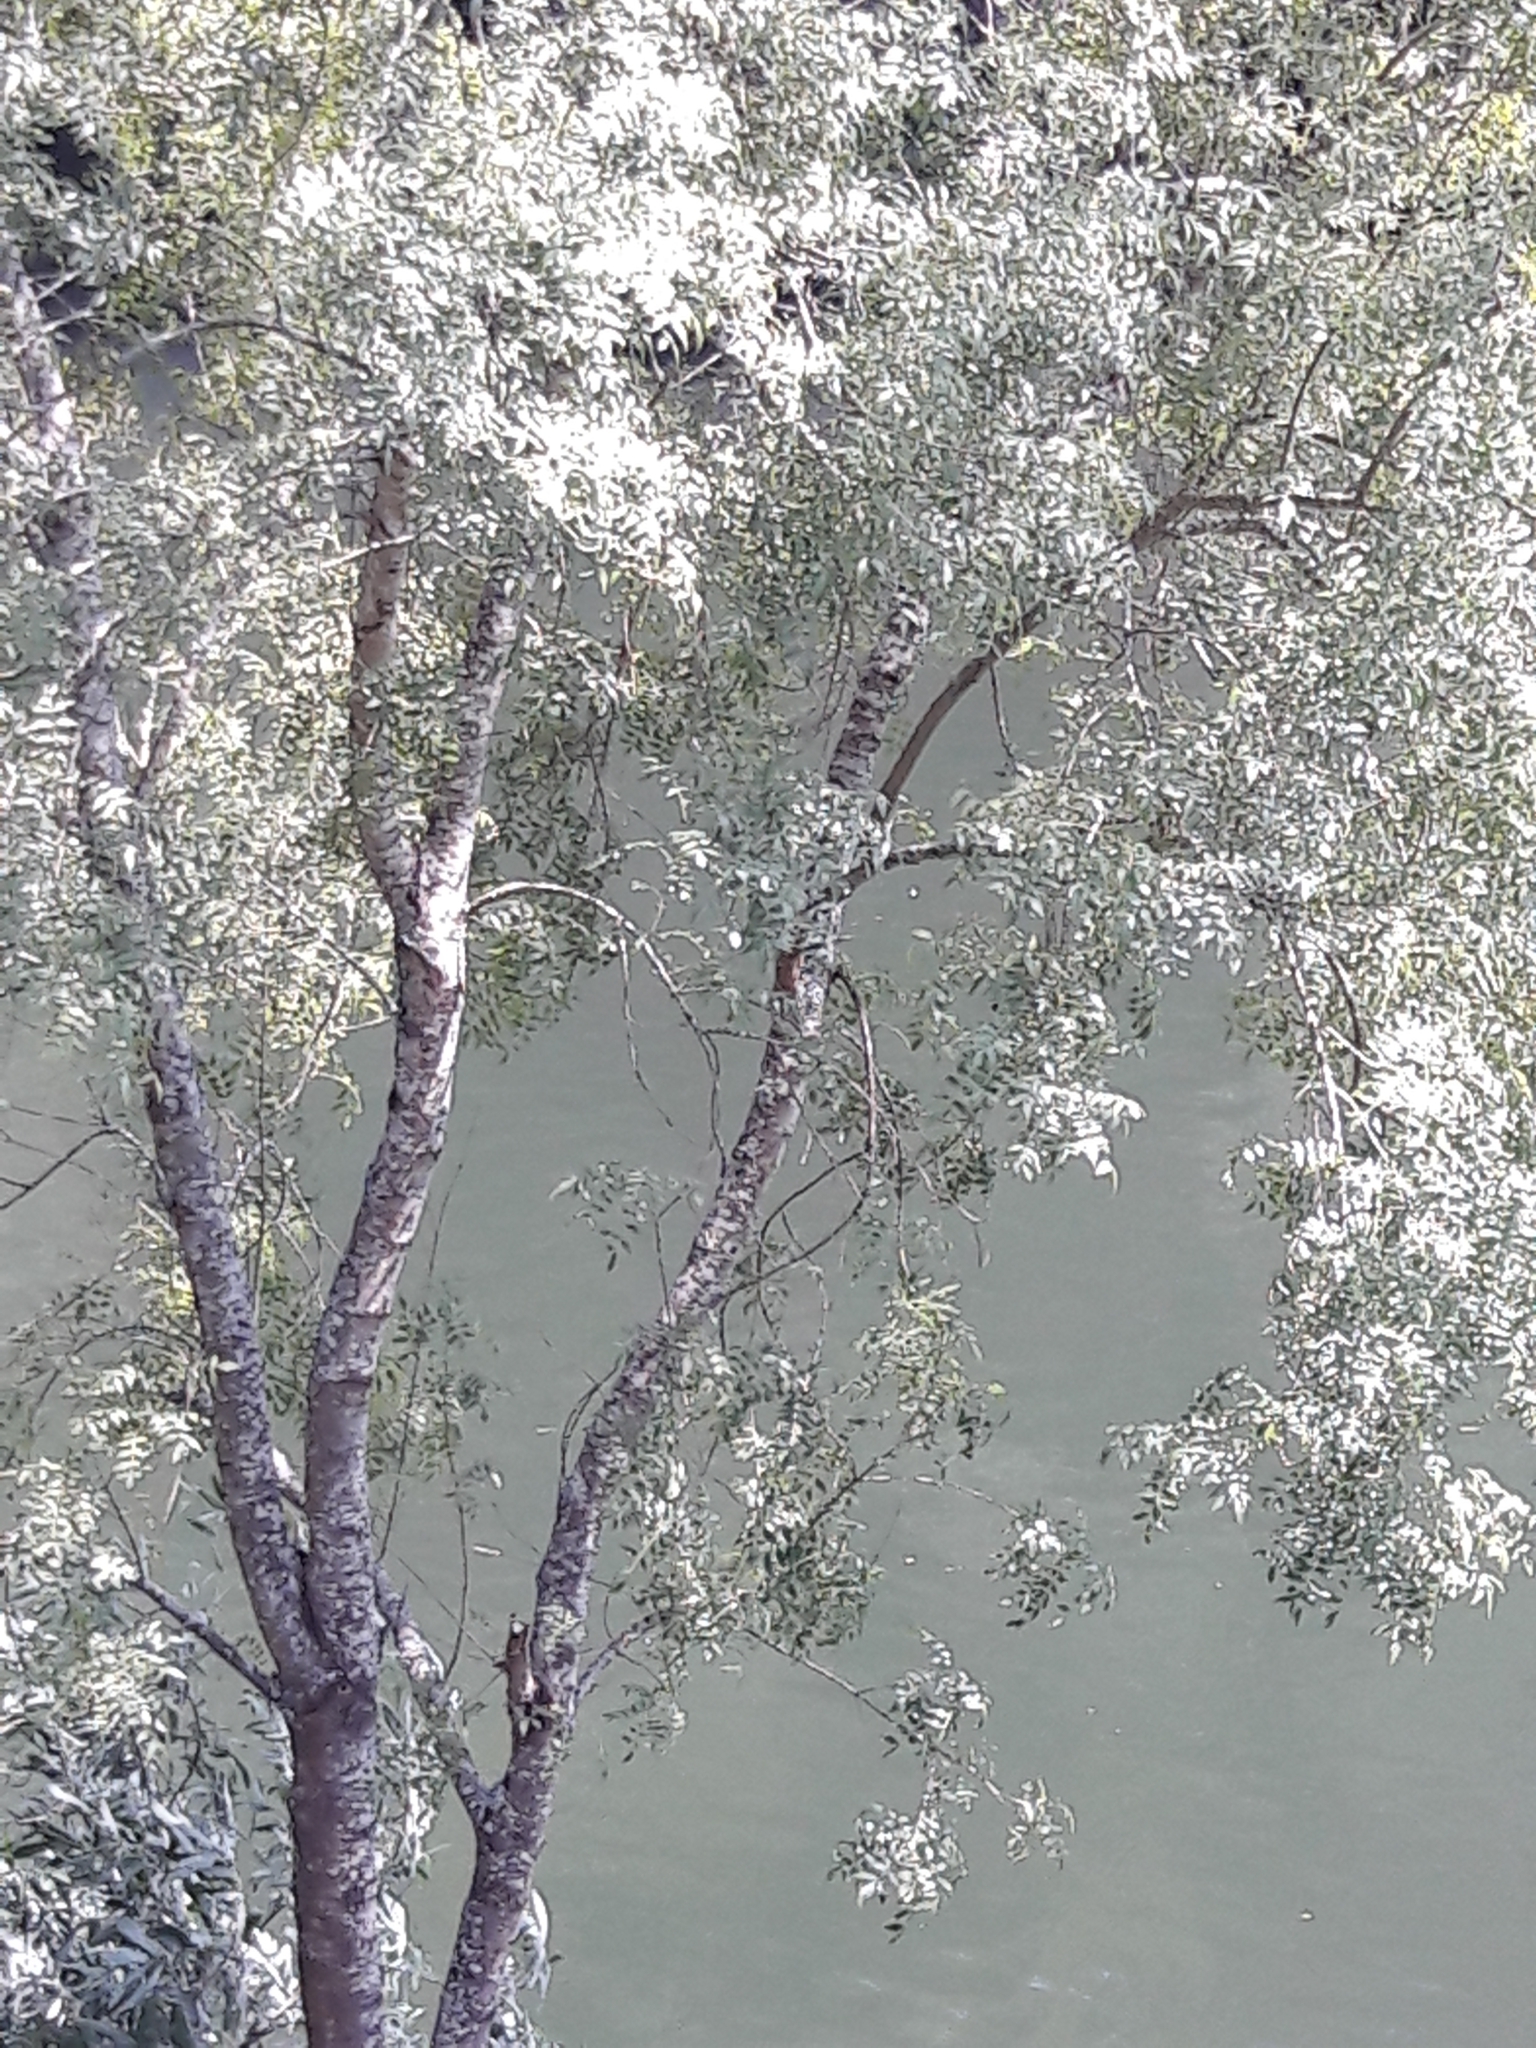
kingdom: Plantae
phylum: Tracheophyta
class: Magnoliopsida
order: Lamiales
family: Oleaceae
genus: Fraxinus
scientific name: Fraxinus angustifolia
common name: Narrow-leafed ash
